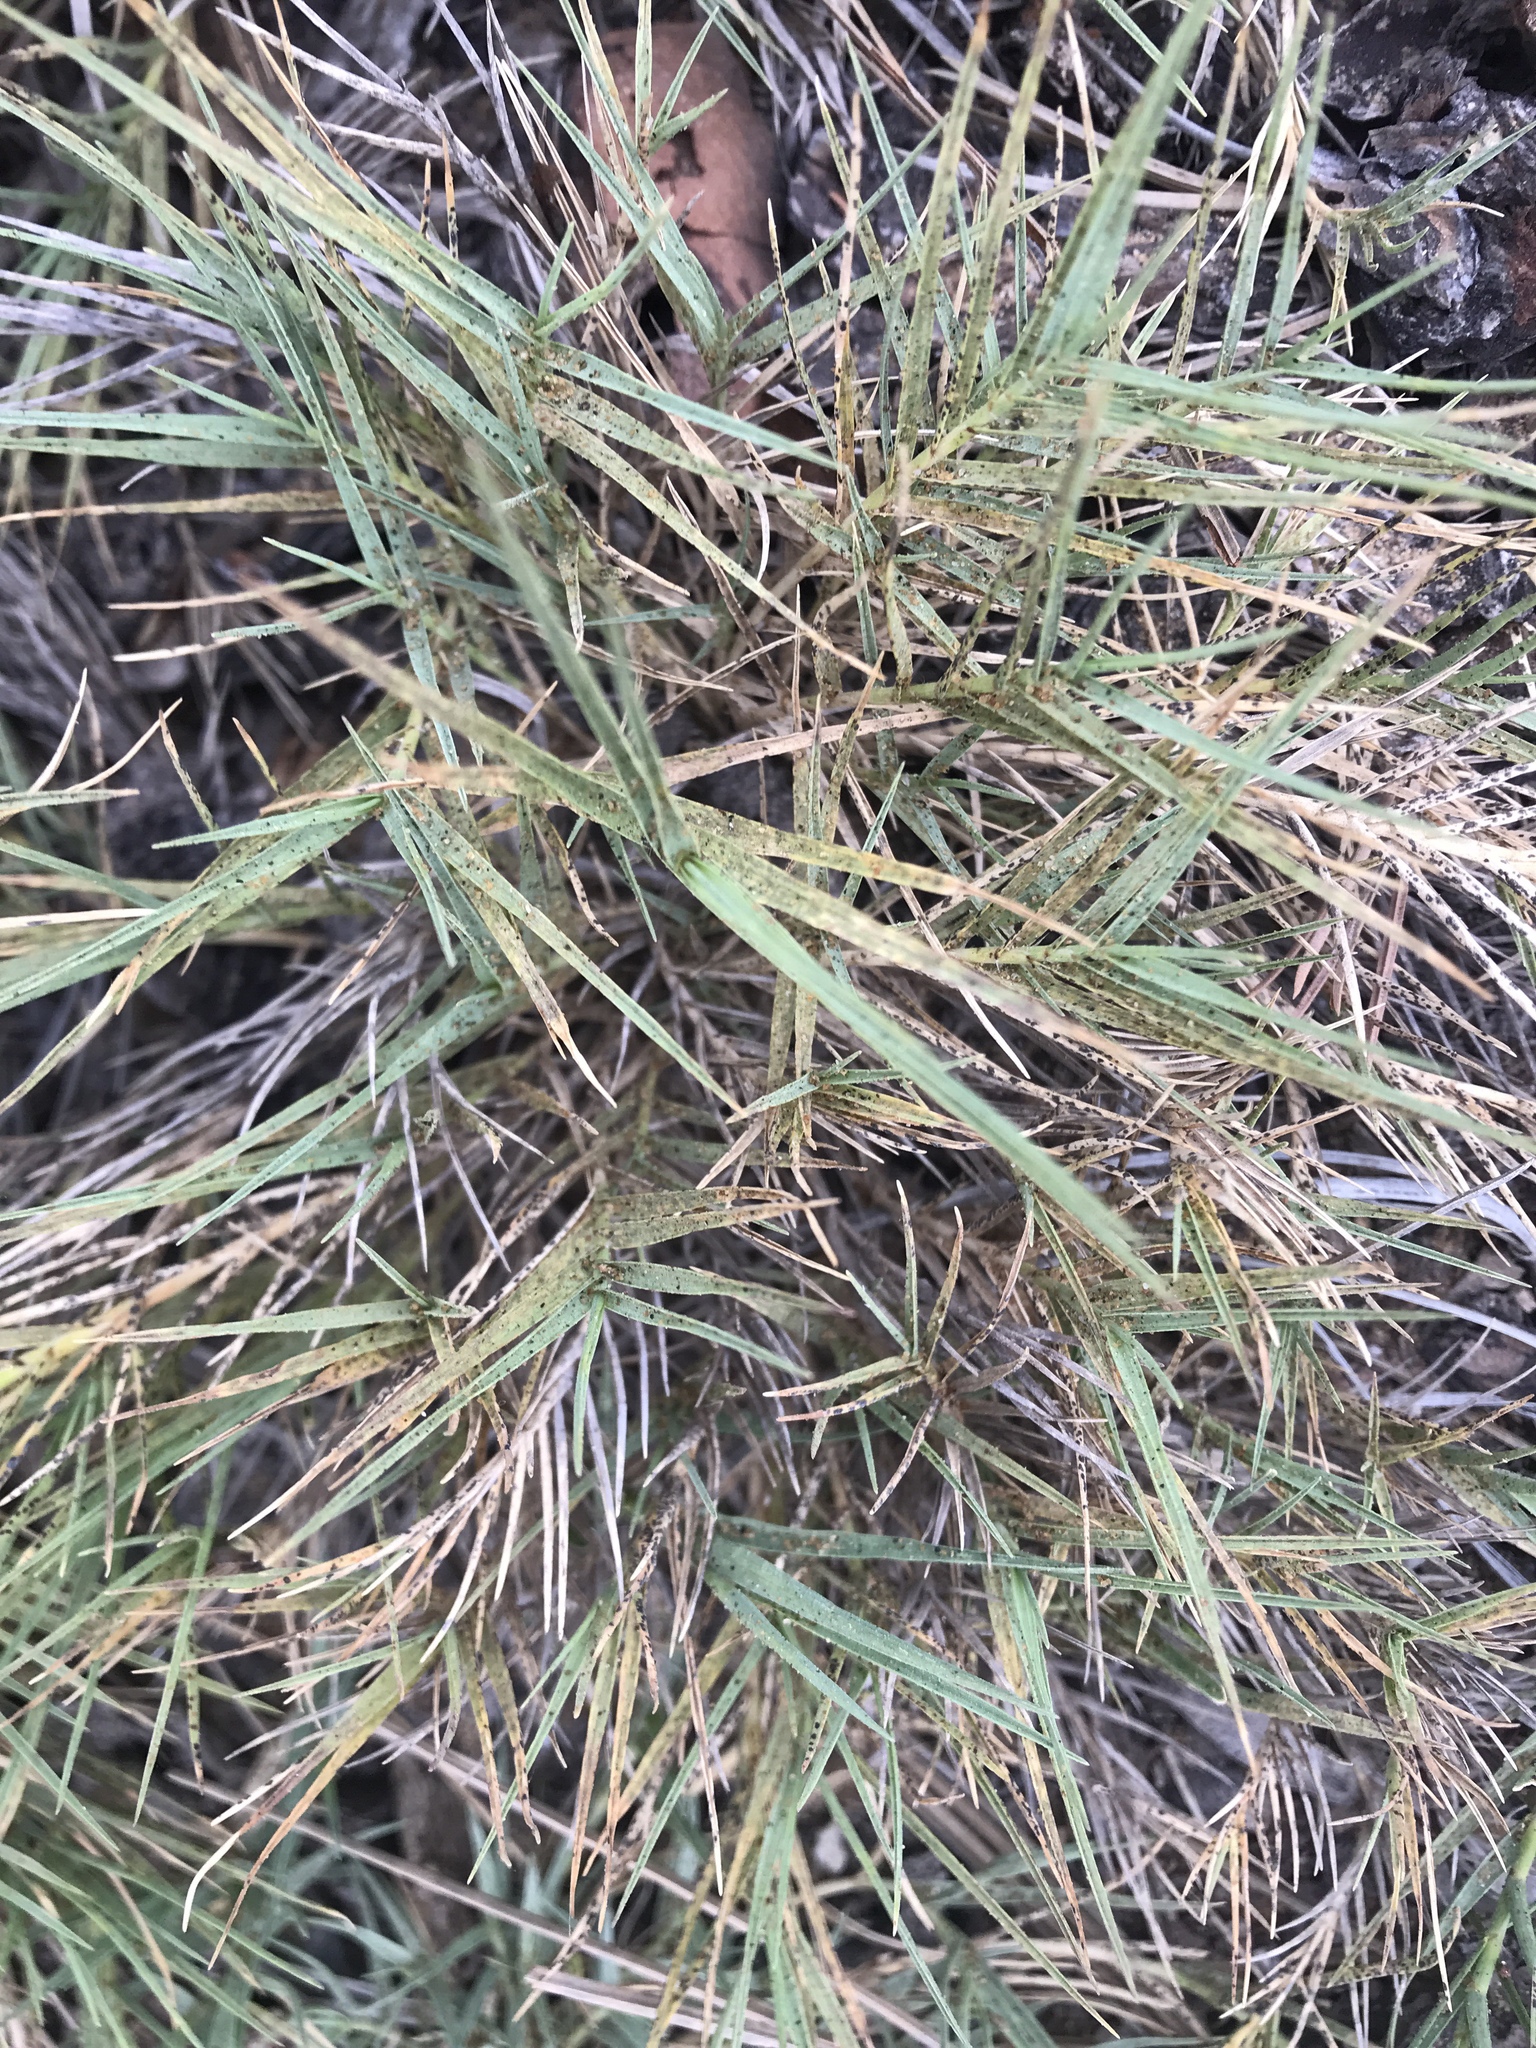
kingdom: Plantae
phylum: Tracheophyta
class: Liliopsida
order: Poales
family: Poaceae
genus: Distichlis
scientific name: Distichlis spicata
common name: Saltgrass
